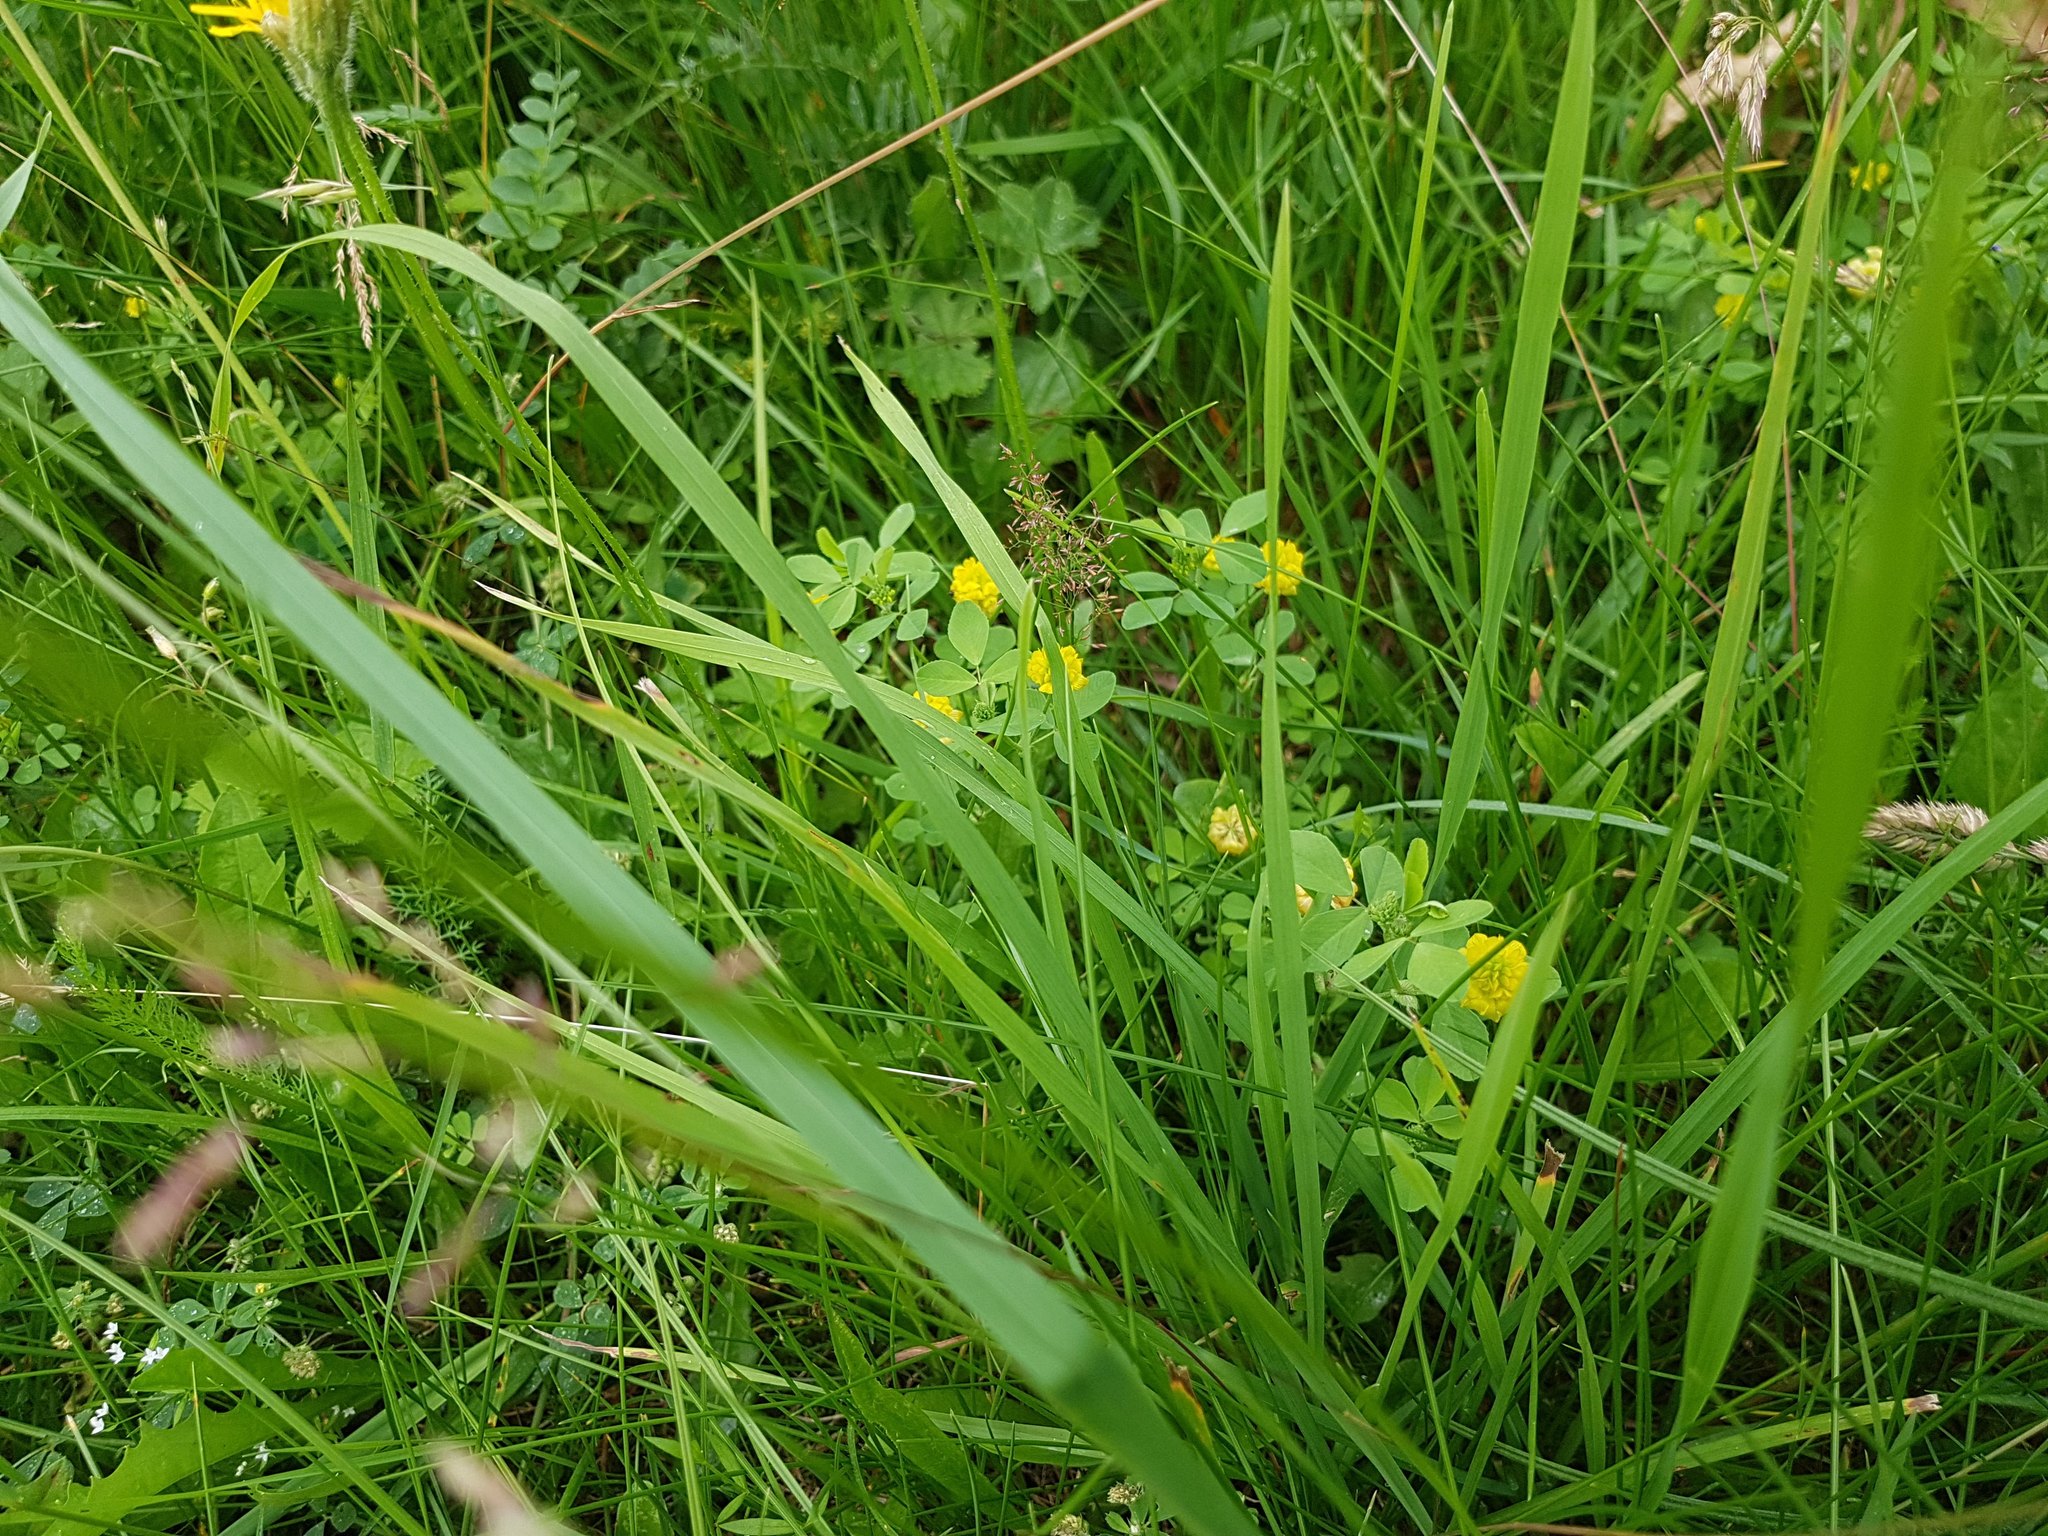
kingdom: Plantae
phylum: Tracheophyta
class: Magnoliopsida
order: Fabales
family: Fabaceae
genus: Trifolium
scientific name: Trifolium campestre
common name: Field clover
